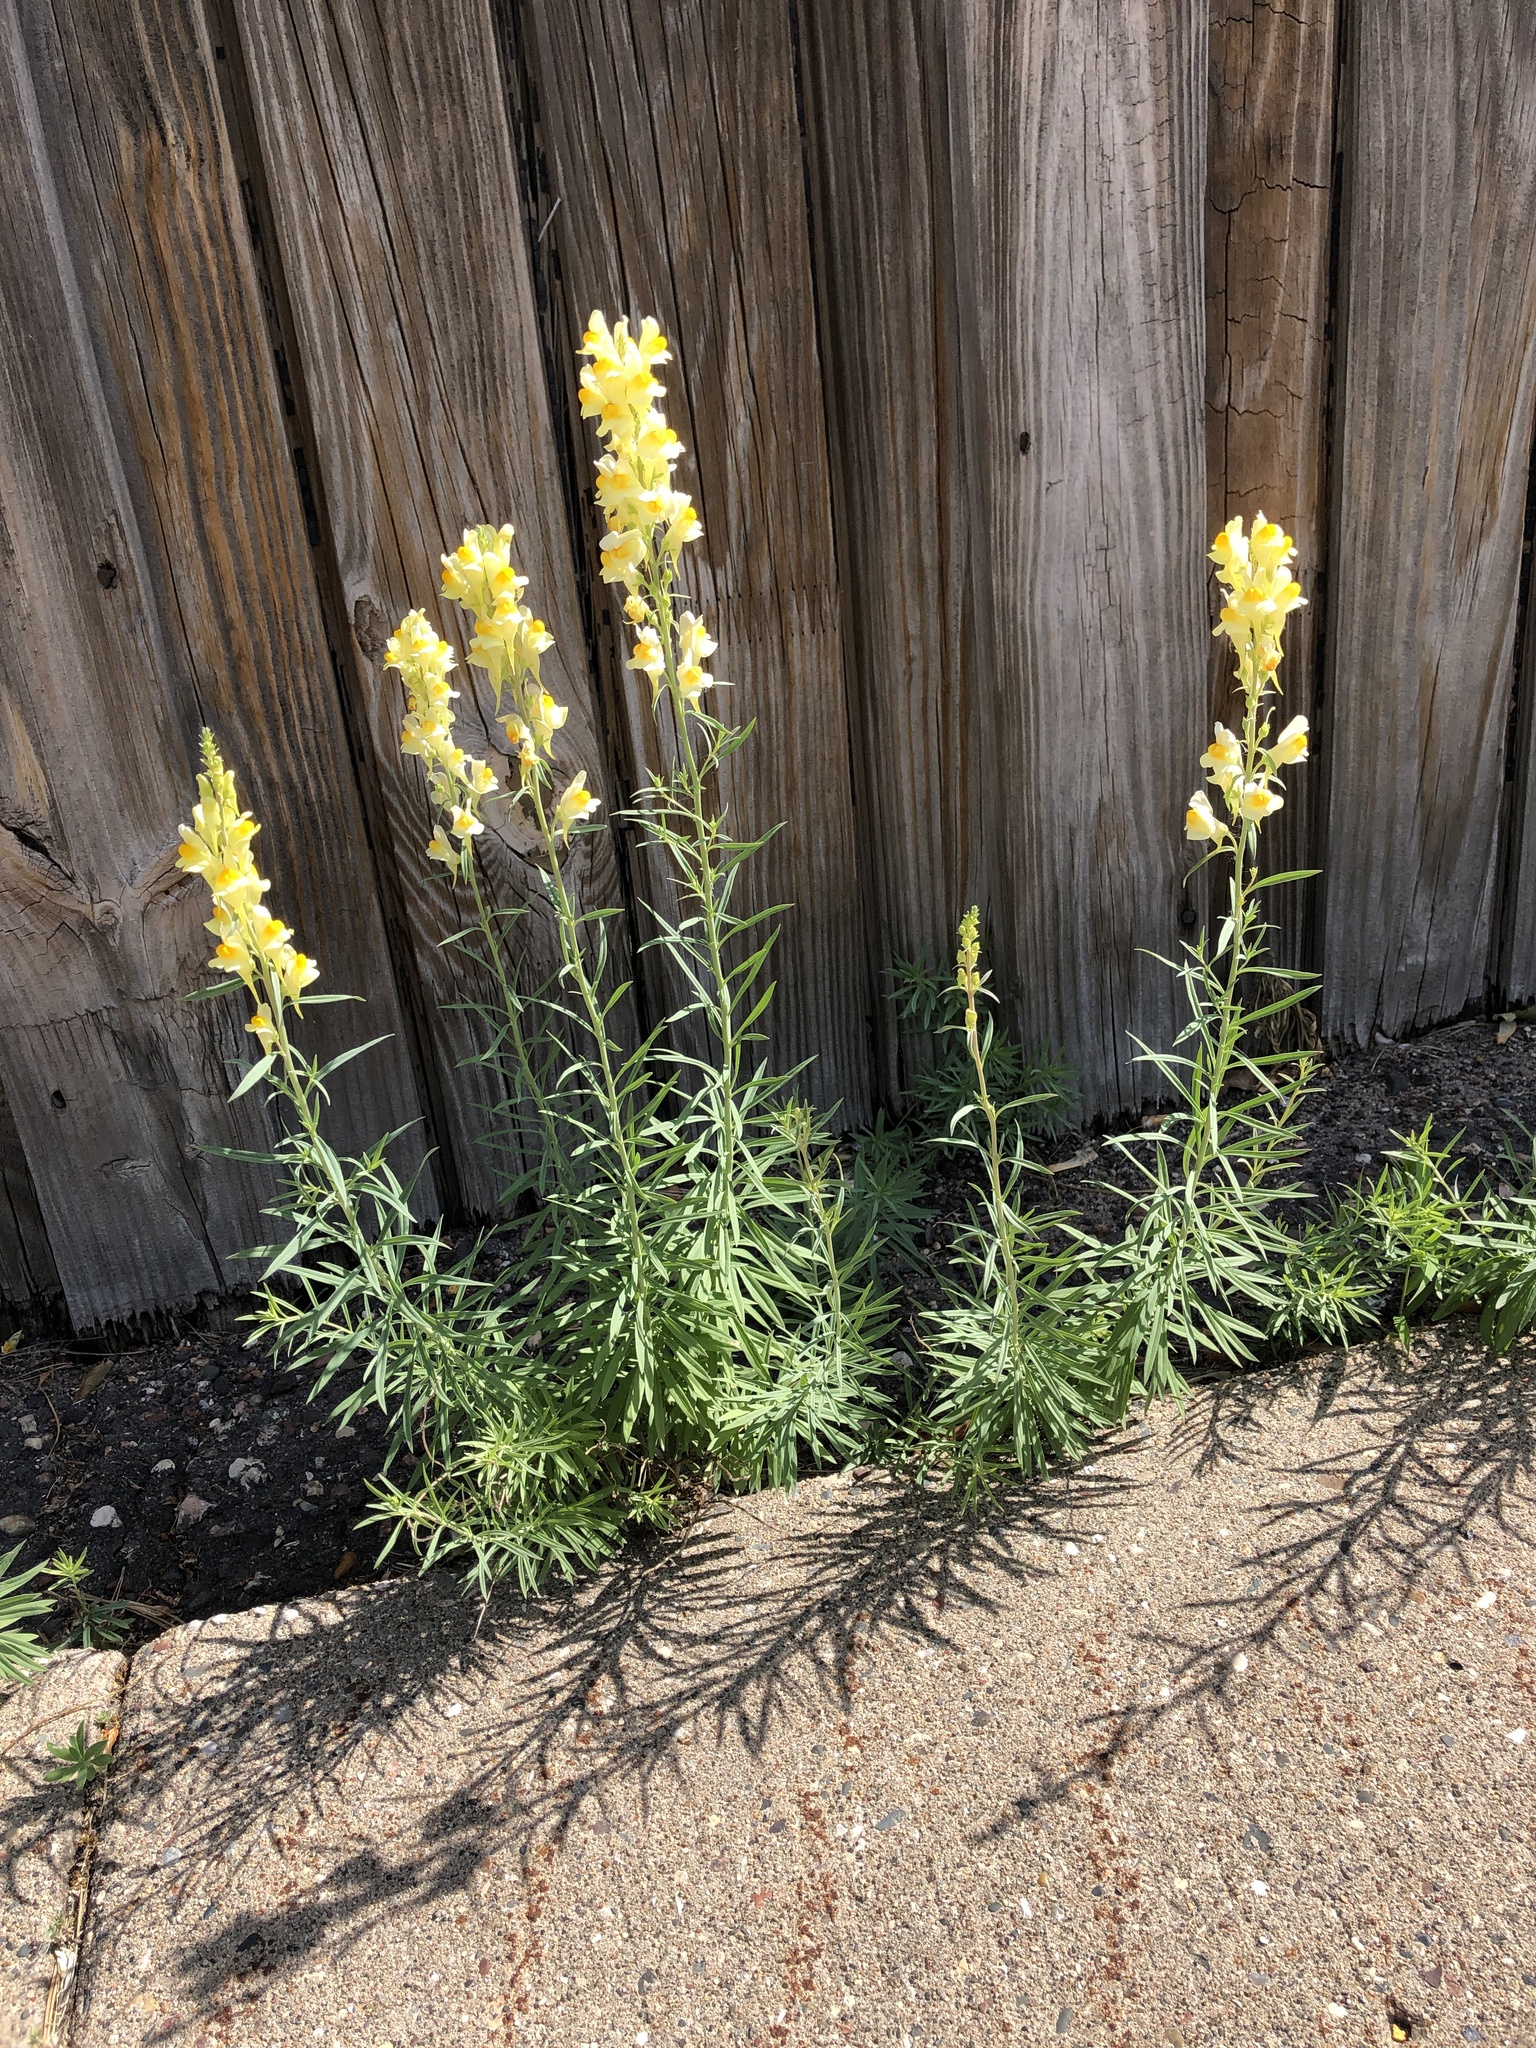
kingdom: Plantae
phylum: Tracheophyta
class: Magnoliopsida
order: Lamiales
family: Plantaginaceae
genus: Linaria
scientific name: Linaria vulgaris
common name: Butter and eggs
